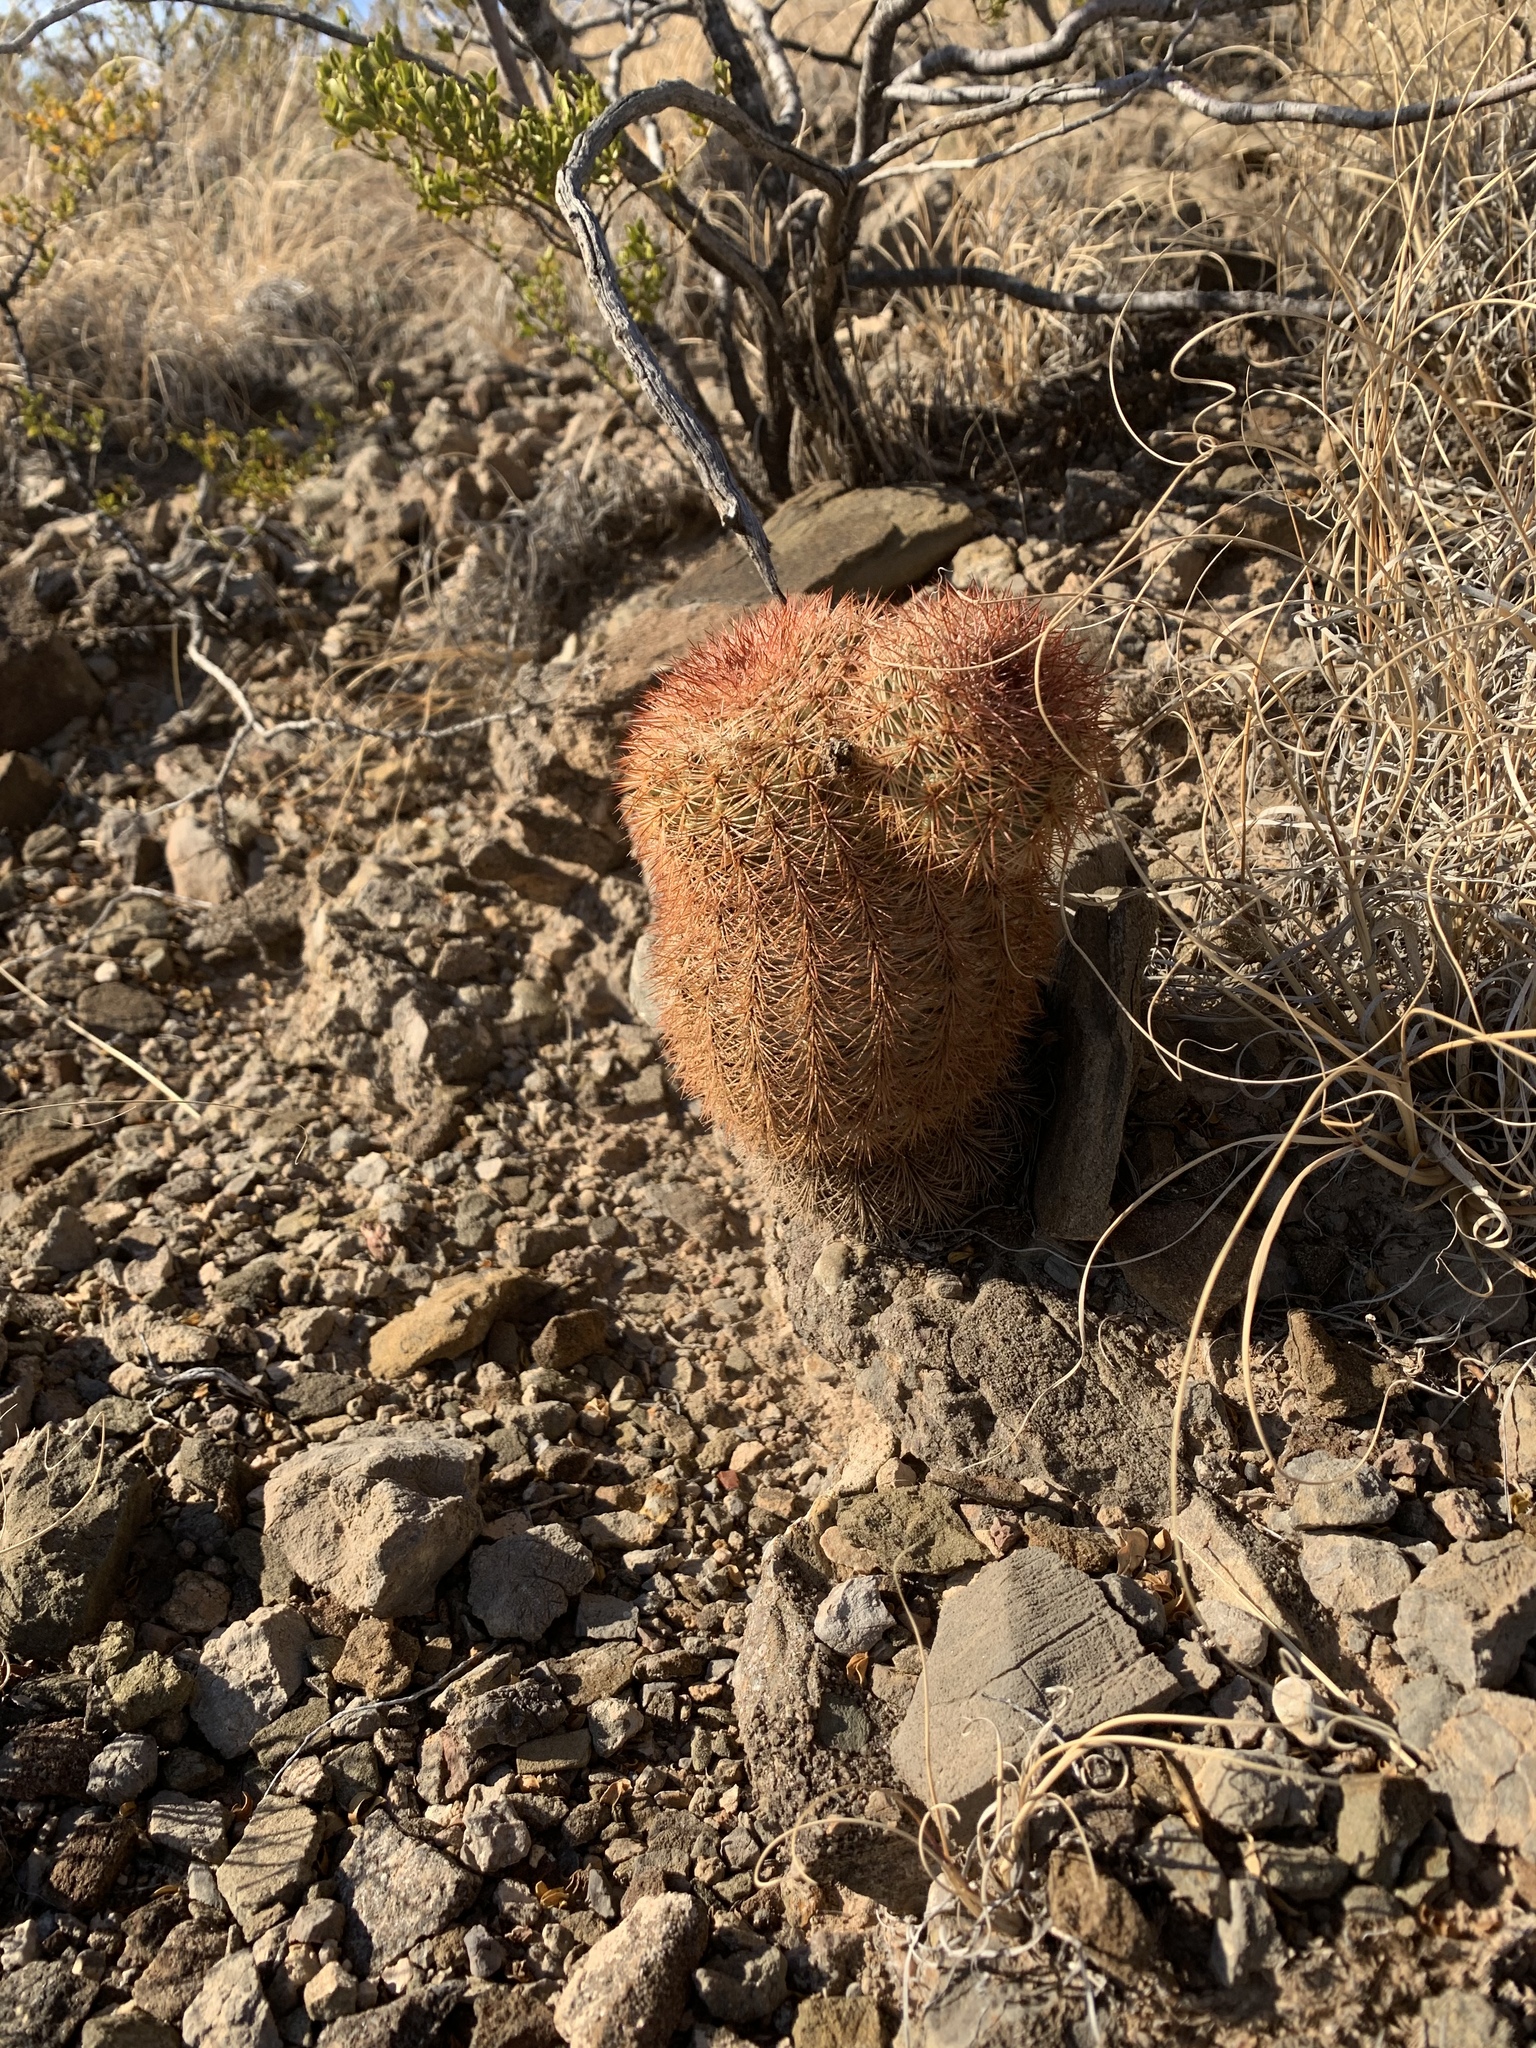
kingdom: Plantae
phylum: Tracheophyta
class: Magnoliopsida
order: Caryophyllales
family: Cactaceae
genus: Echinocereus
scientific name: Echinocereus dasyacanthus
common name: Spiny hedgehog cactus
